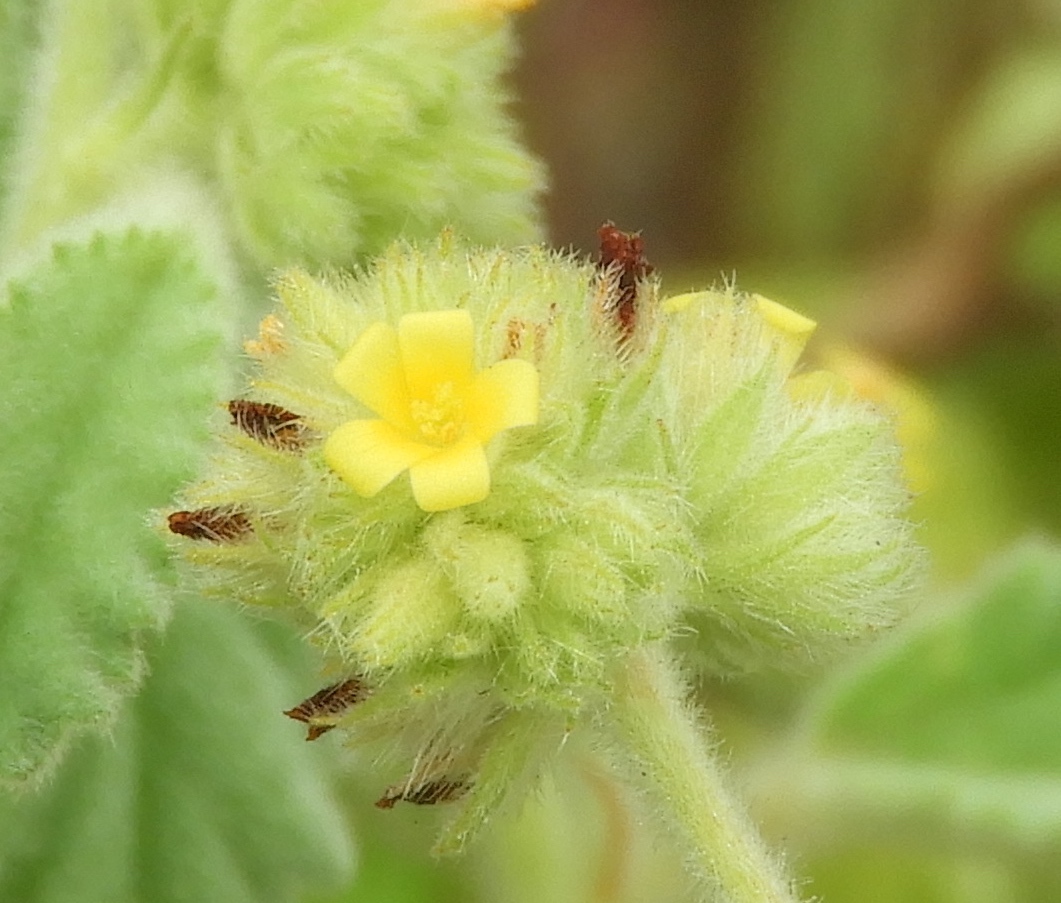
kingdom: Plantae
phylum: Tracheophyta
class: Magnoliopsida
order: Malvales
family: Malvaceae
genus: Waltheria
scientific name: Waltheria indica
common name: Leather-coat
